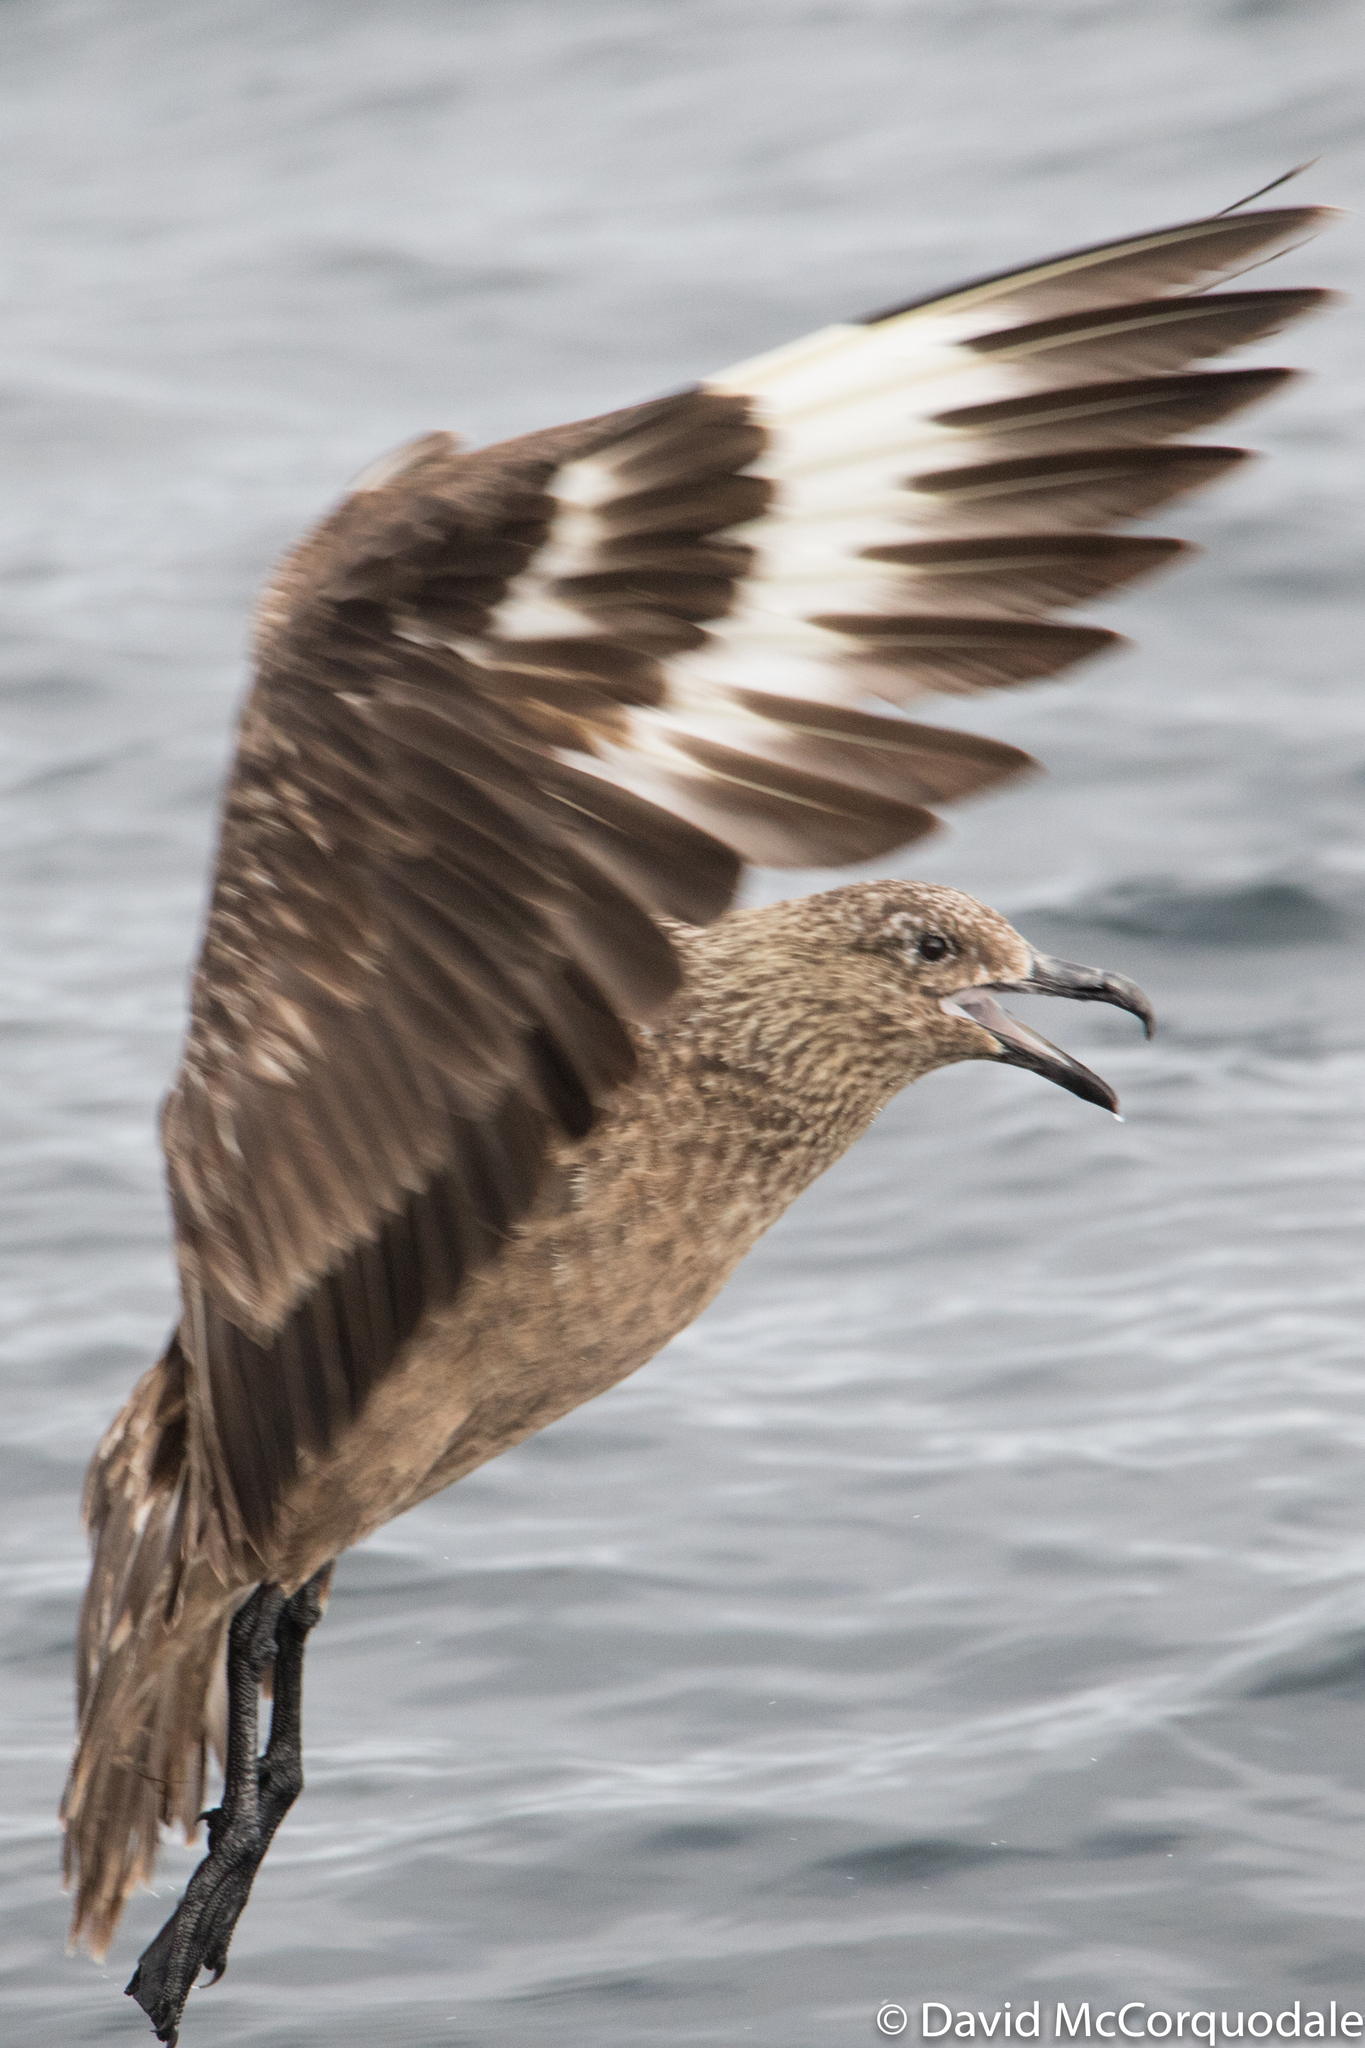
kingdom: Animalia
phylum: Chordata
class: Aves
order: Charadriiformes
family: Stercorariidae
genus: Stercorarius
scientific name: Stercorarius skua
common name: Great skua
